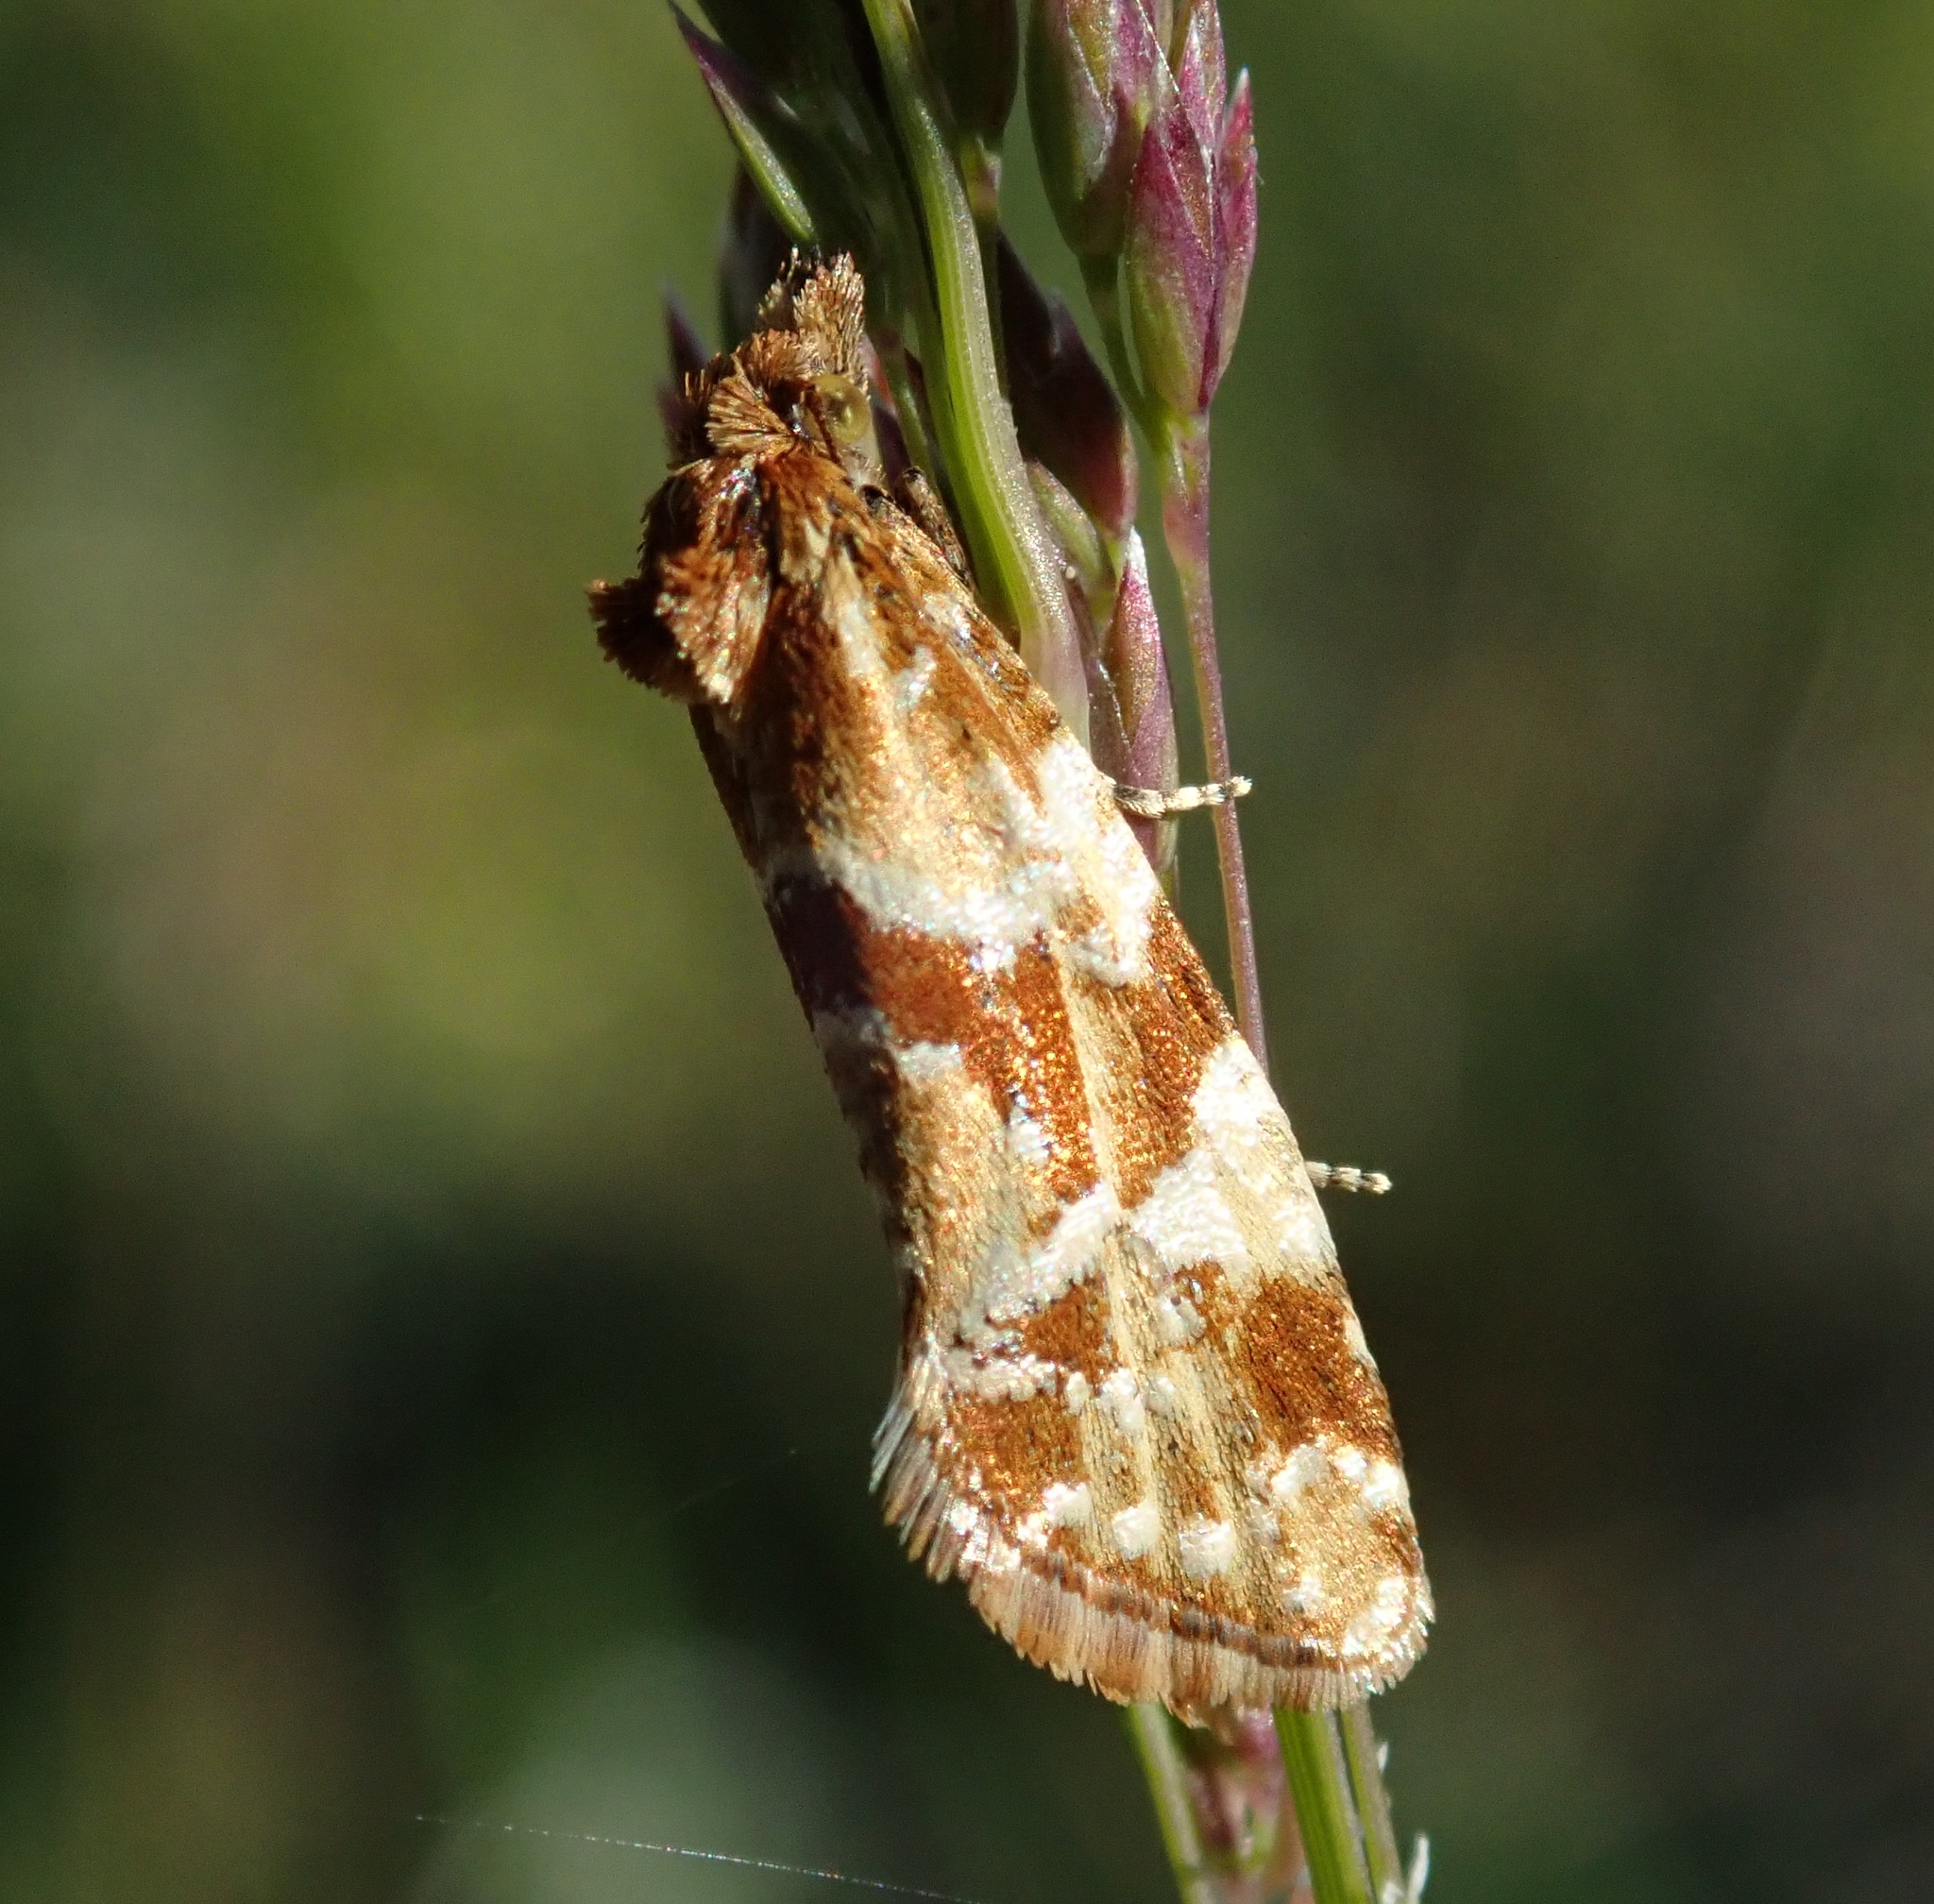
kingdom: Animalia
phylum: Arthropoda
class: Insecta
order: Lepidoptera
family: Tortricidae
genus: Aethes
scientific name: Aethes hartmanniana
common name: Scabious conch
